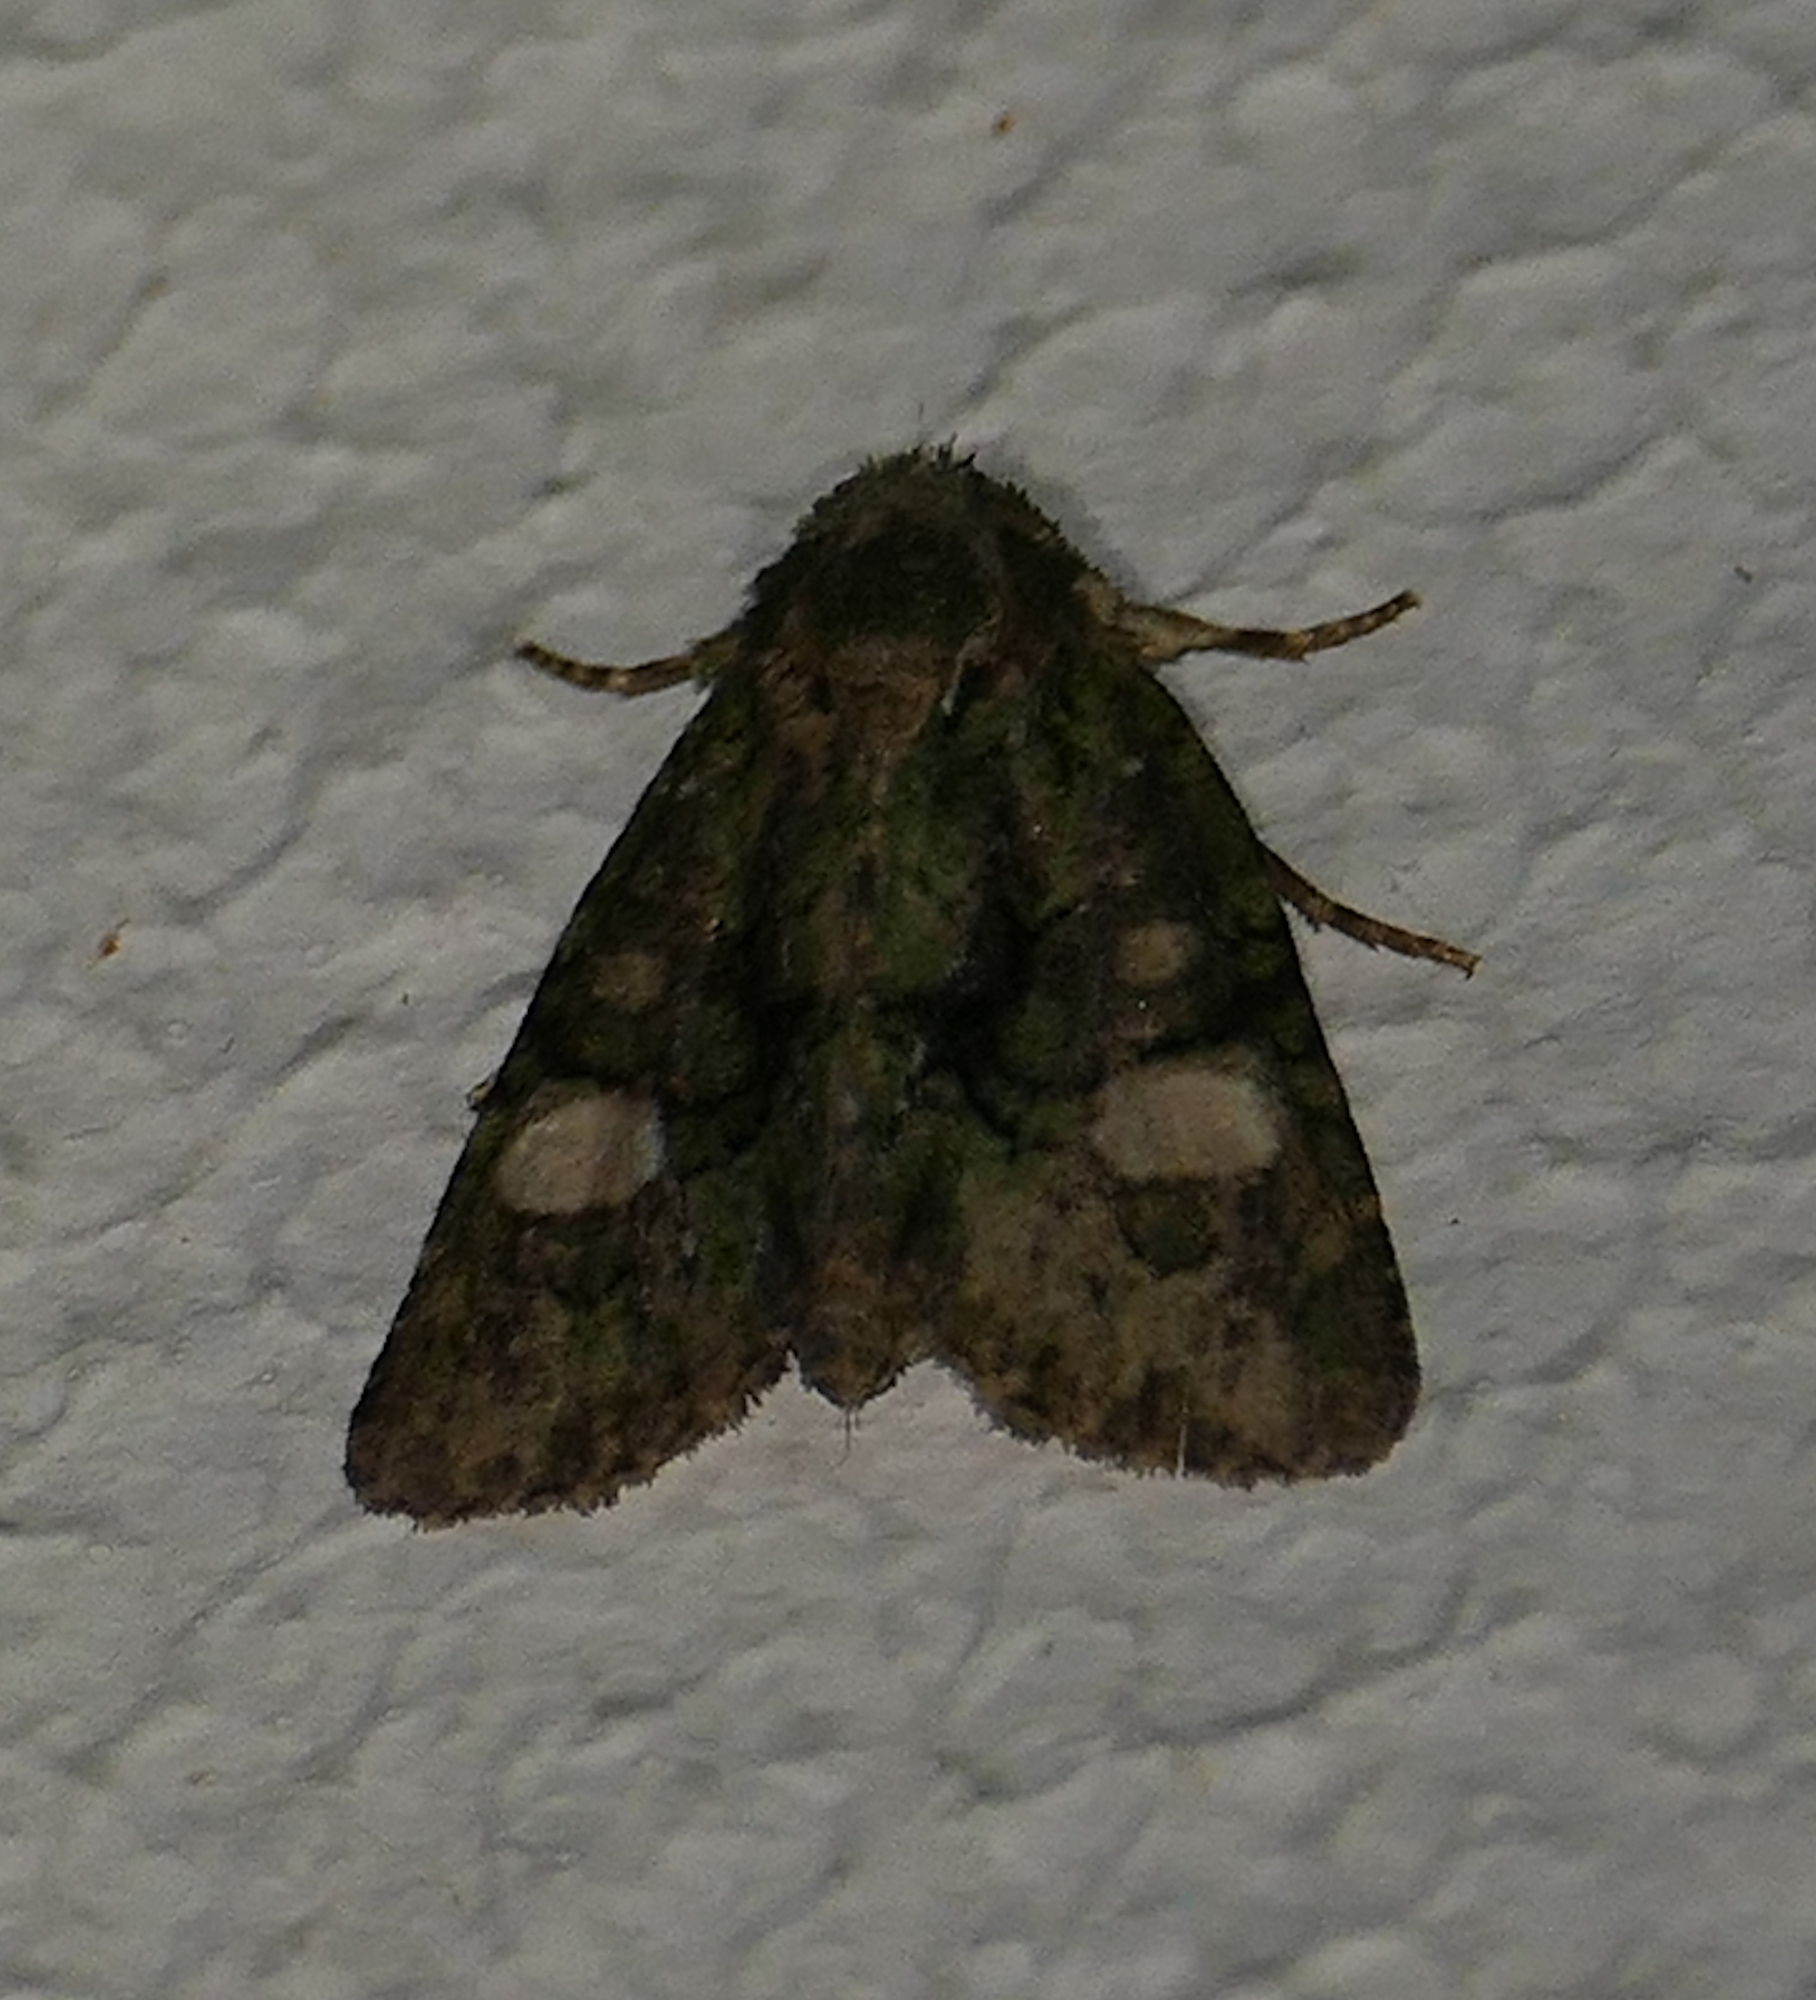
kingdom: Animalia
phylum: Arthropoda
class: Insecta
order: Lepidoptera
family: Noctuidae
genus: Phosphila
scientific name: Phosphila miselioides
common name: Spotted phosphila moth
